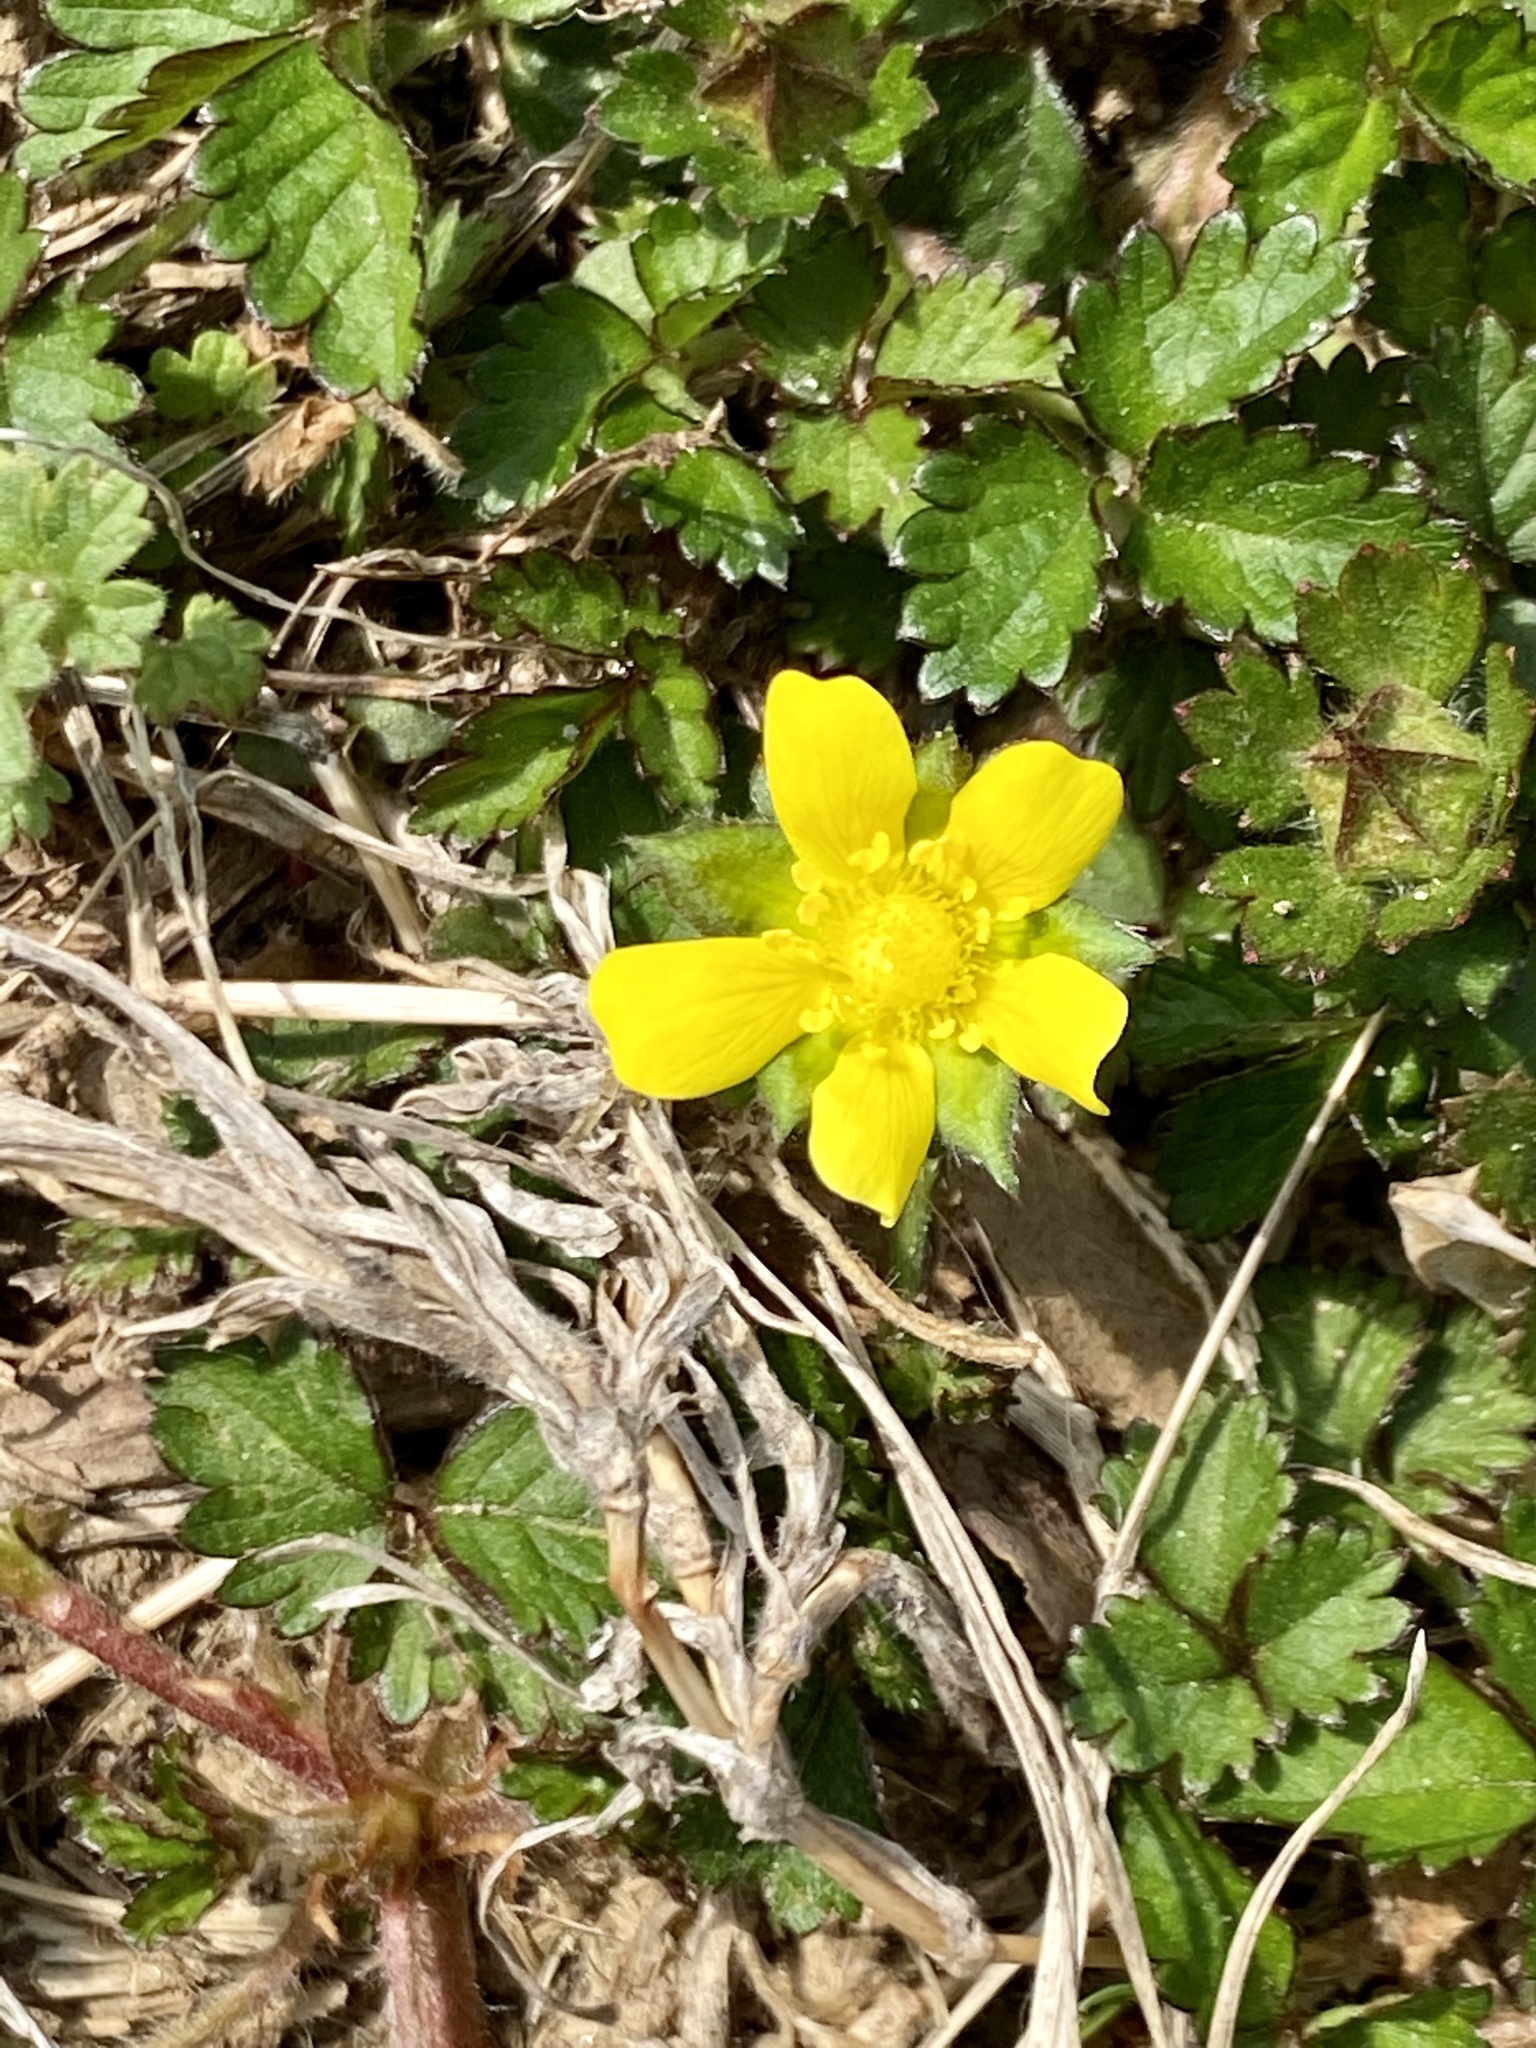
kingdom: Plantae
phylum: Tracheophyta
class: Magnoliopsida
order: Rosales
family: Rosaceae
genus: Potentilla
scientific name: Potentilla indica
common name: Yellow-flowered strawberry
